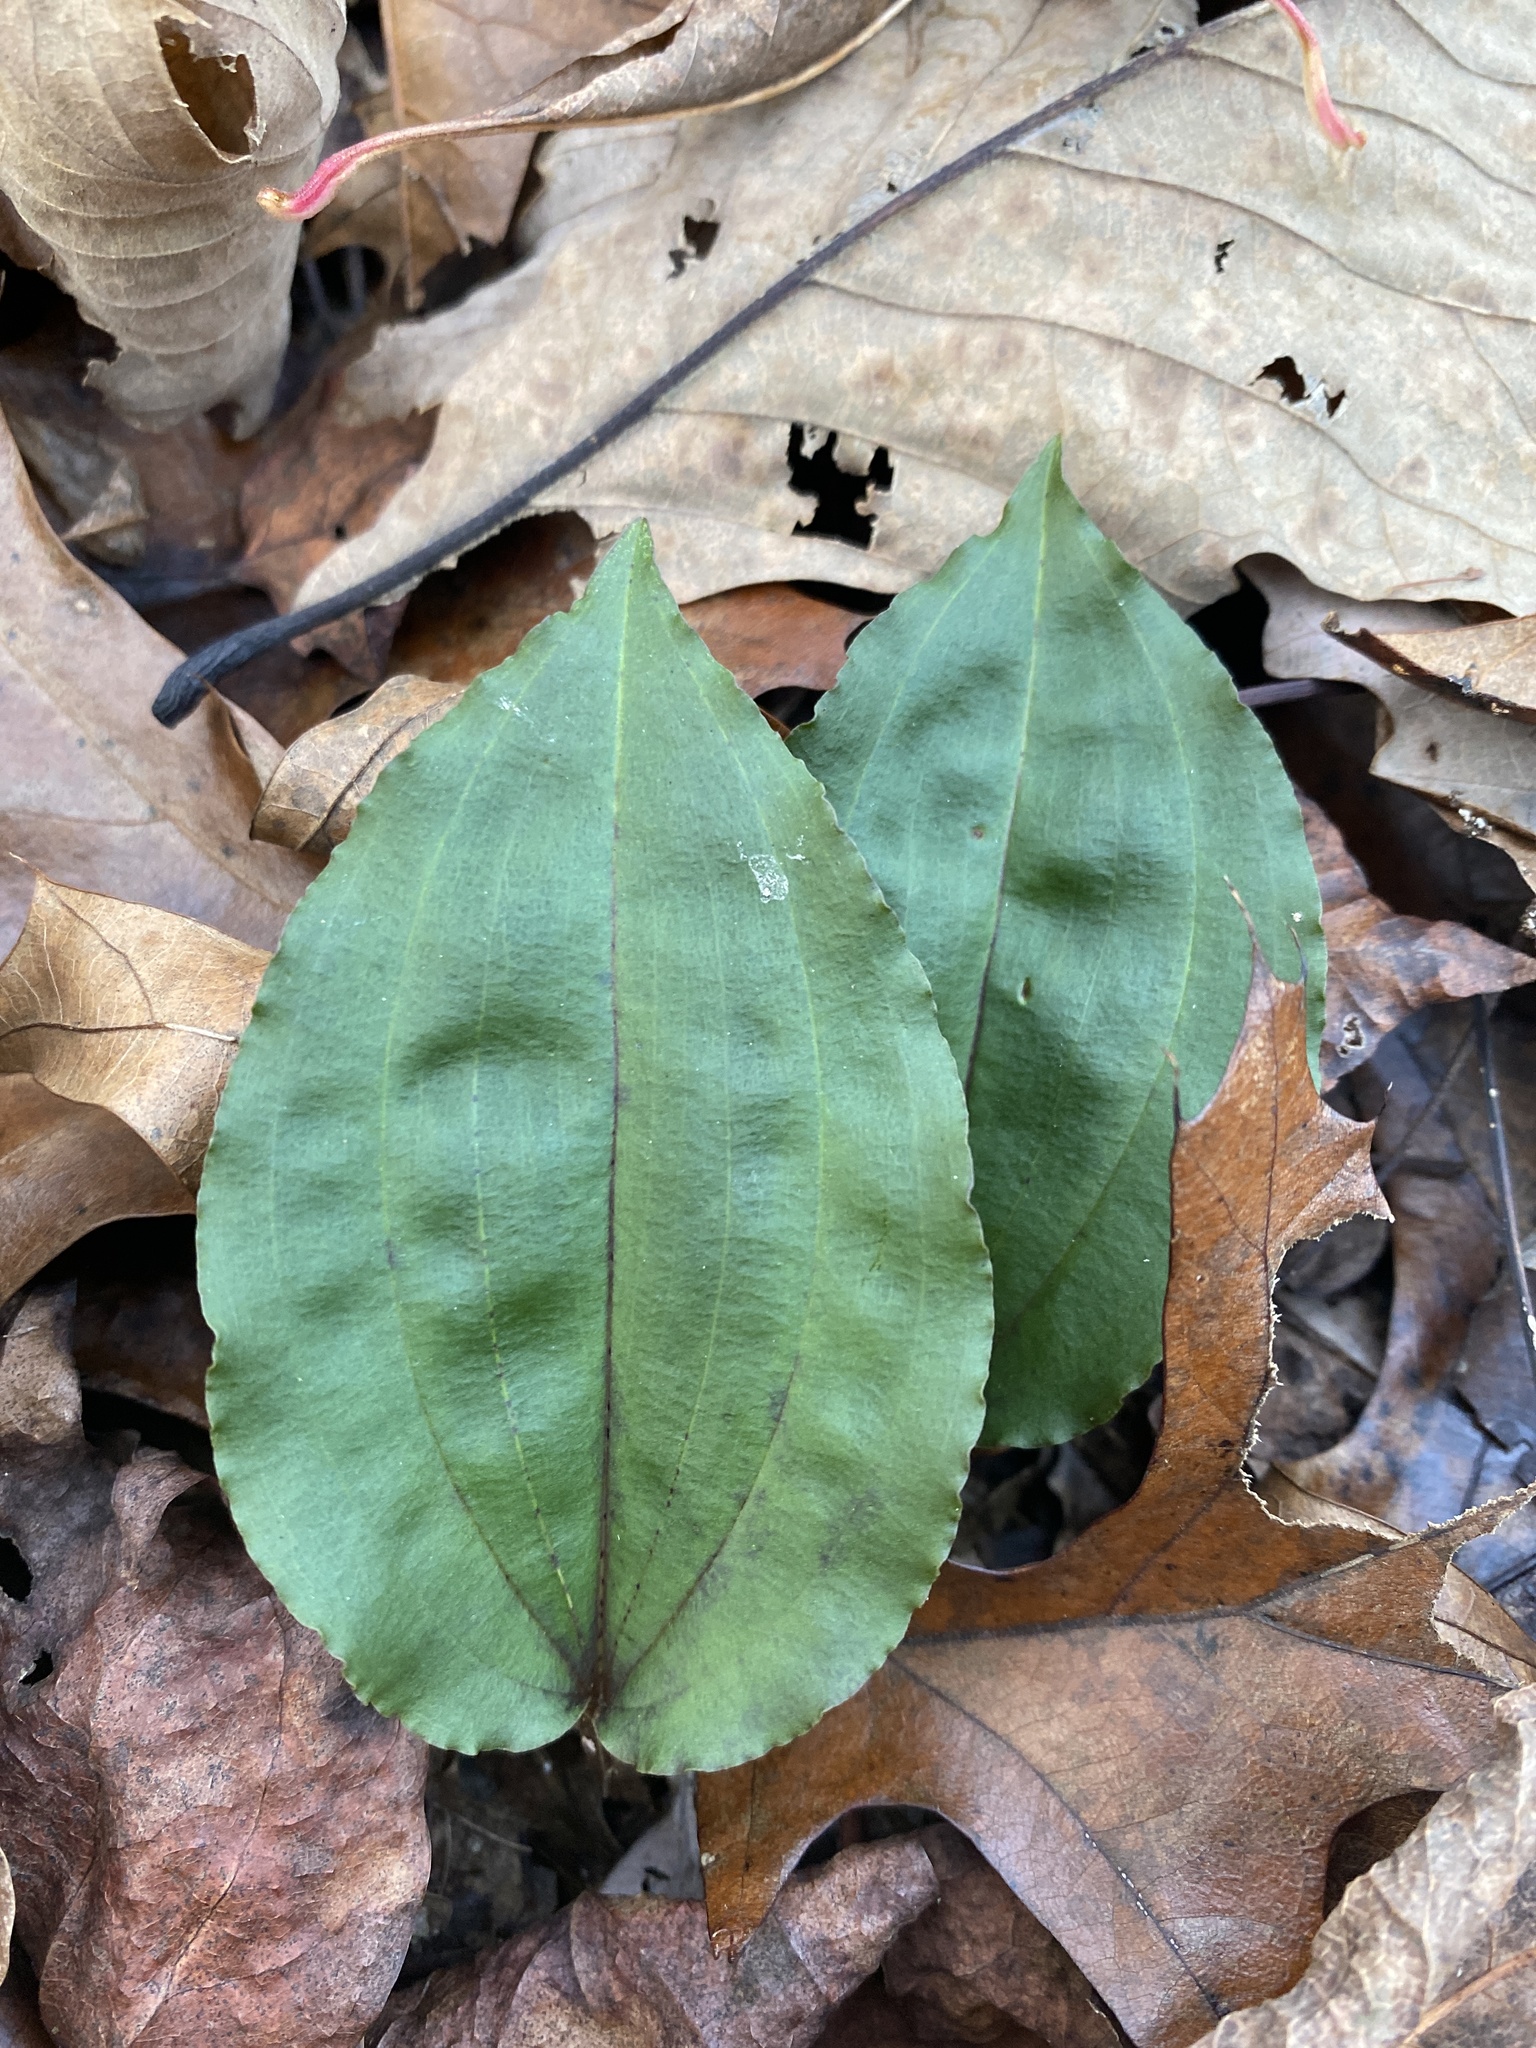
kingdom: Plantae
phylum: Tracheophyta
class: Liliopsida
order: Asparagales
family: Orchidaceae
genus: Tipularia
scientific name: Tipularia discolor
